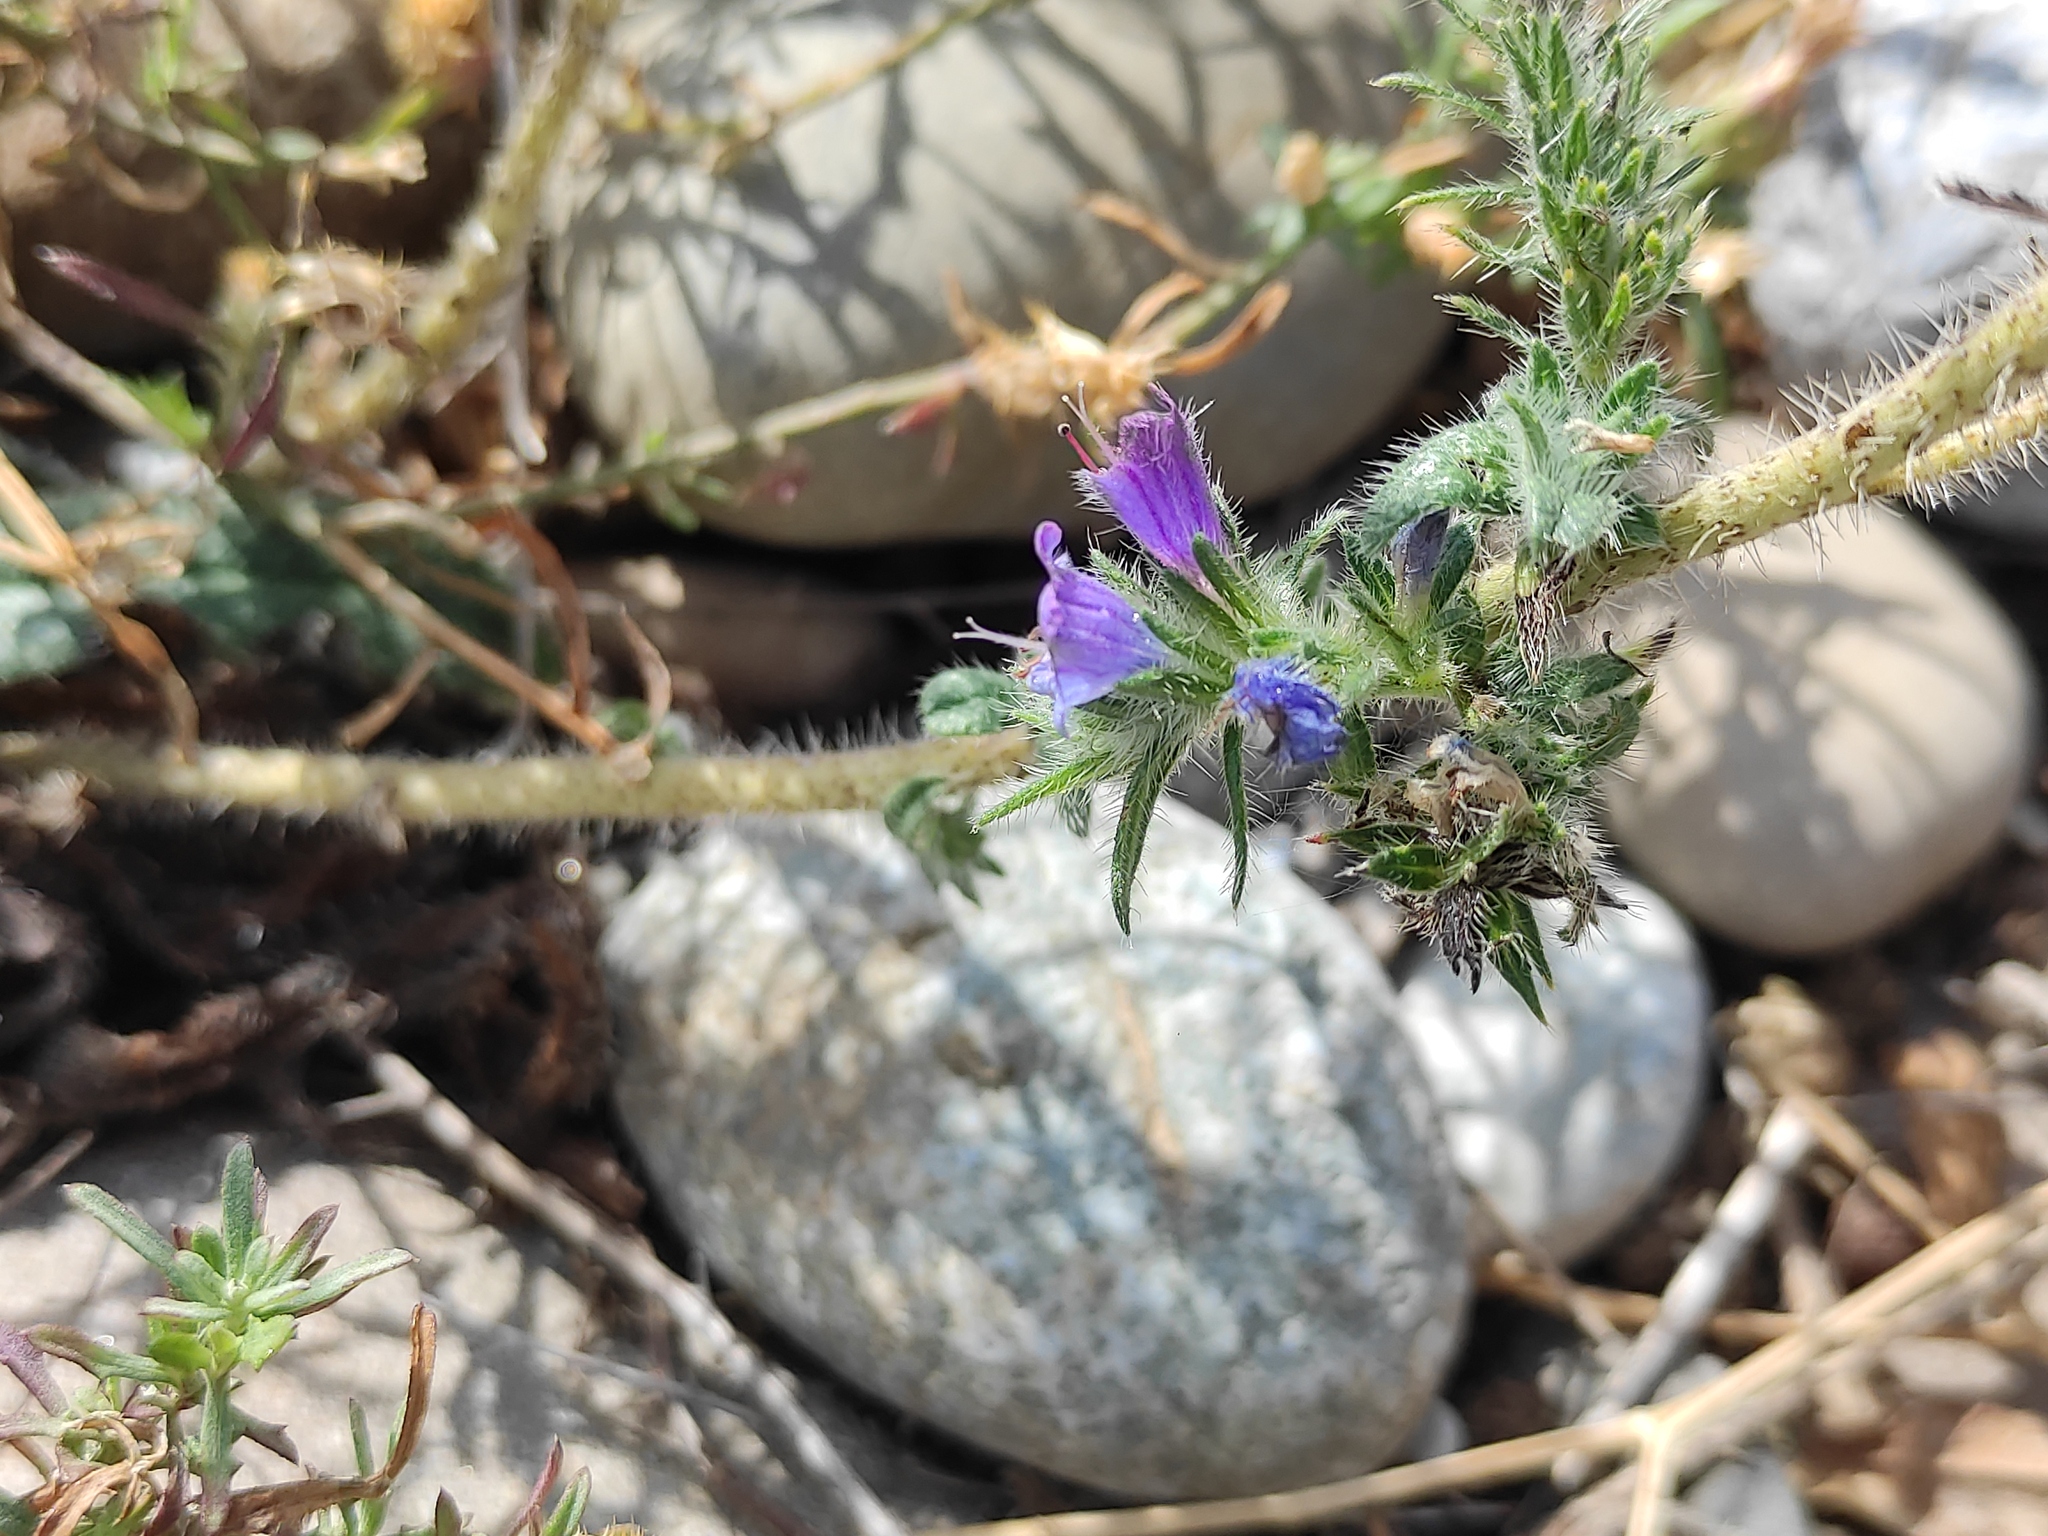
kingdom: Plantae
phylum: Tracheophyta
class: Magnoliopsida
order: Boraginales
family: Boraginaceae
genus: Echium
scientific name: Echium vulgare
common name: Common viper's bugloss
